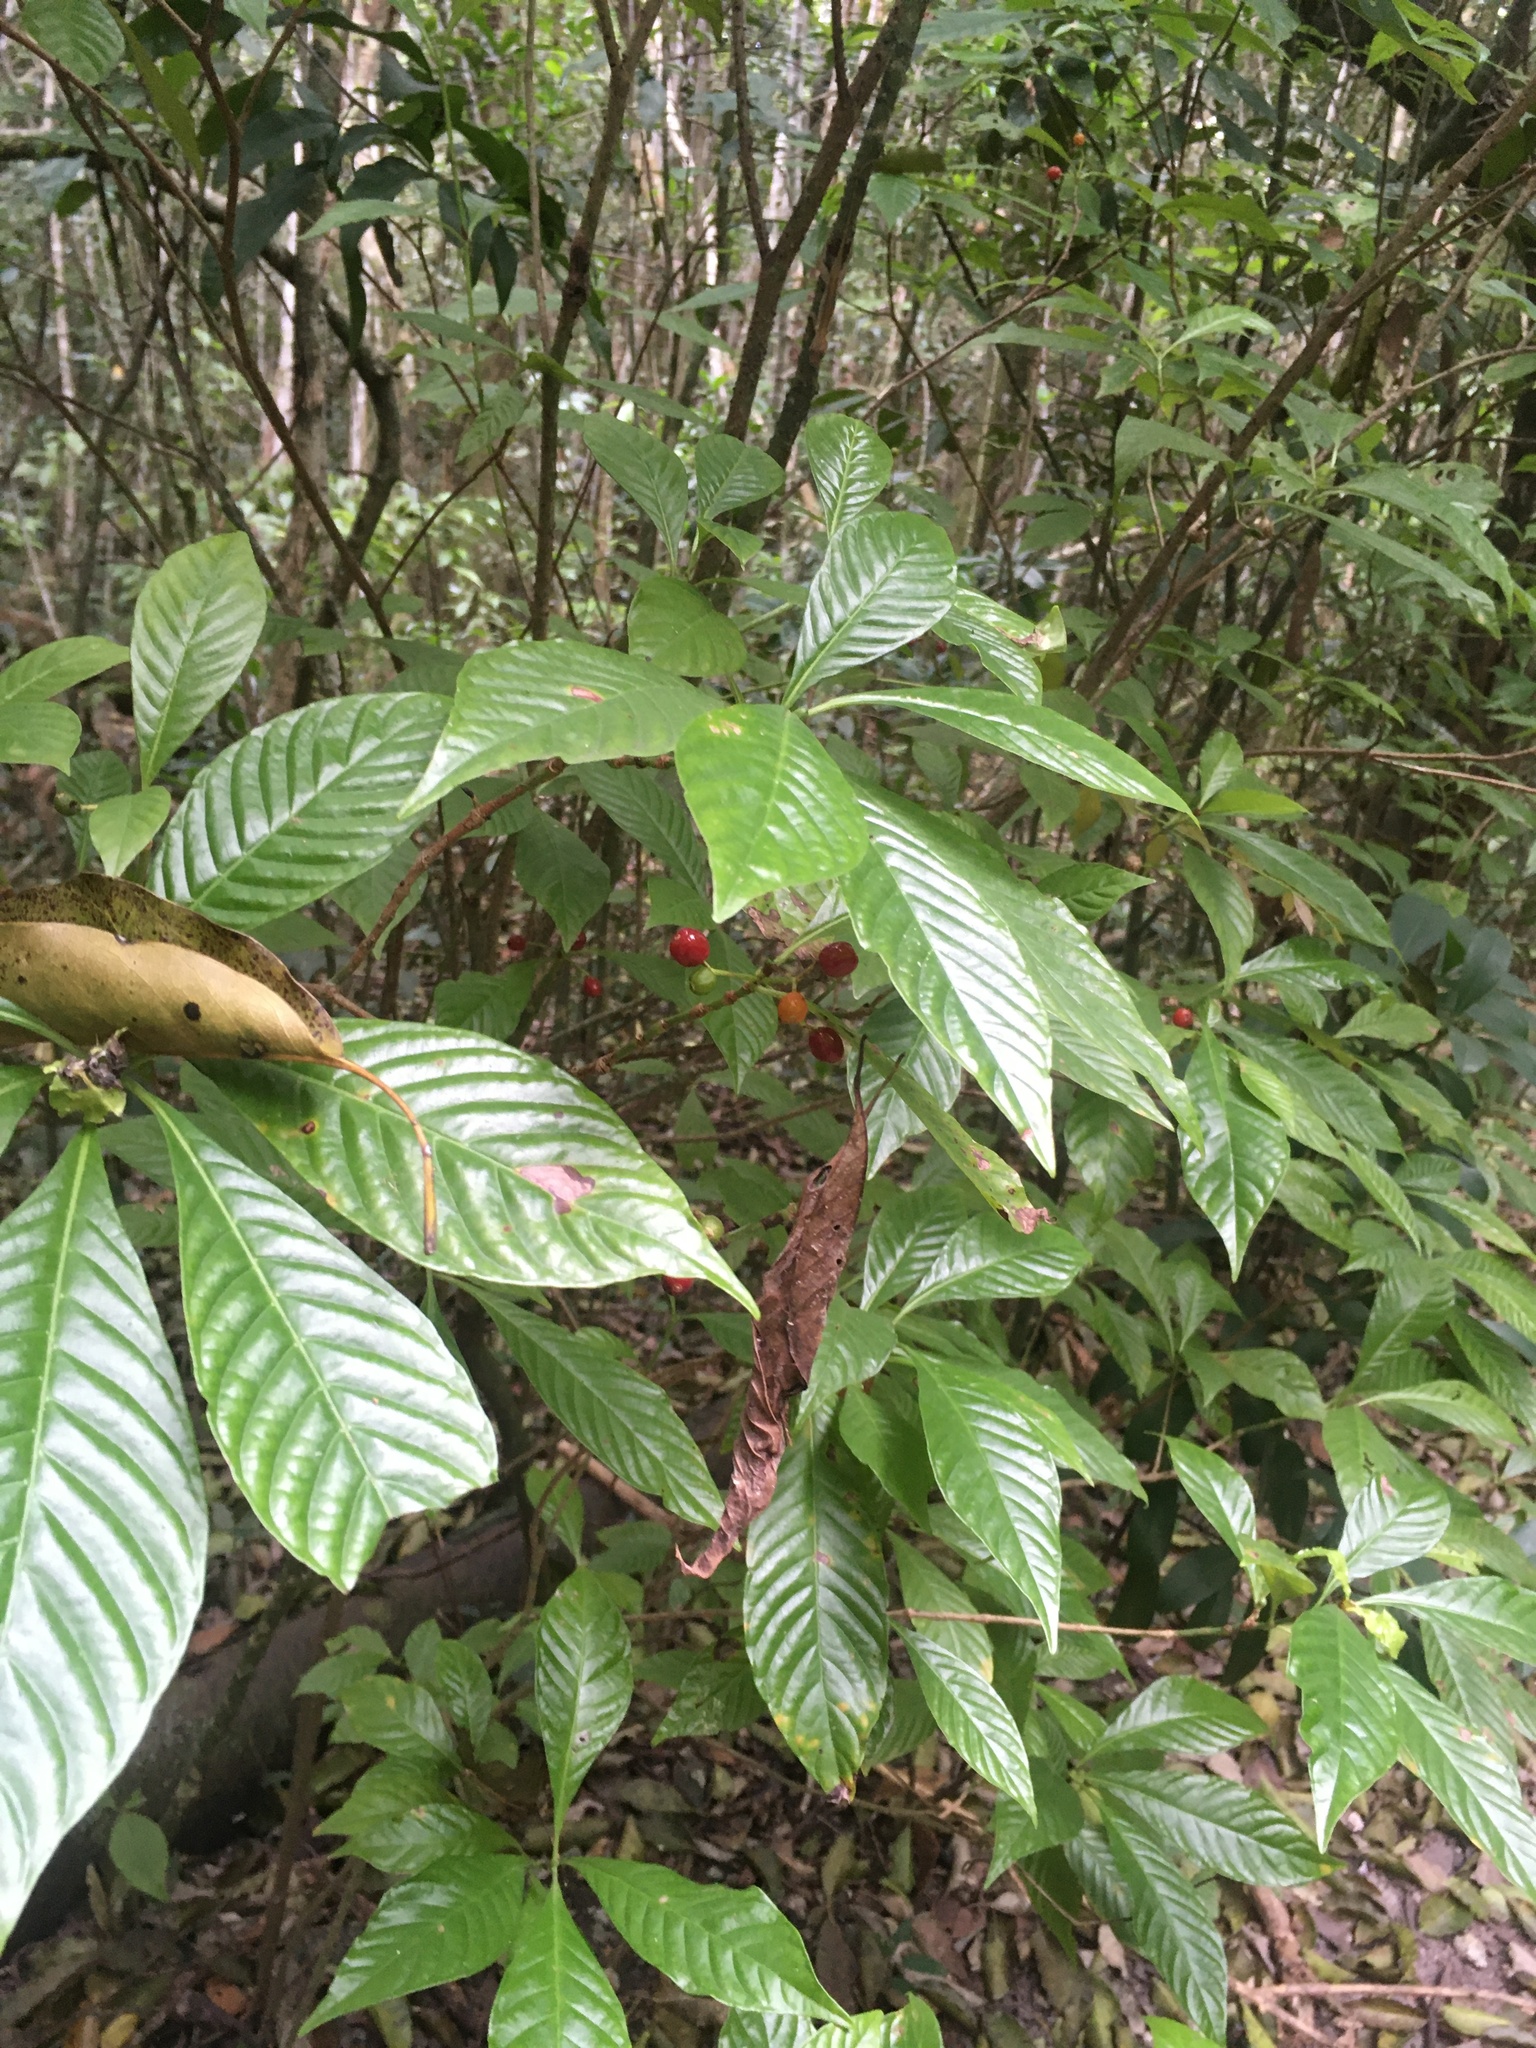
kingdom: Plantae
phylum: Tracheophyta
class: Magnoliopsida
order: Gentianales
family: Rubiaceae
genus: Psychotria
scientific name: Psychotria nervosa
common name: Bastard cankerberry
